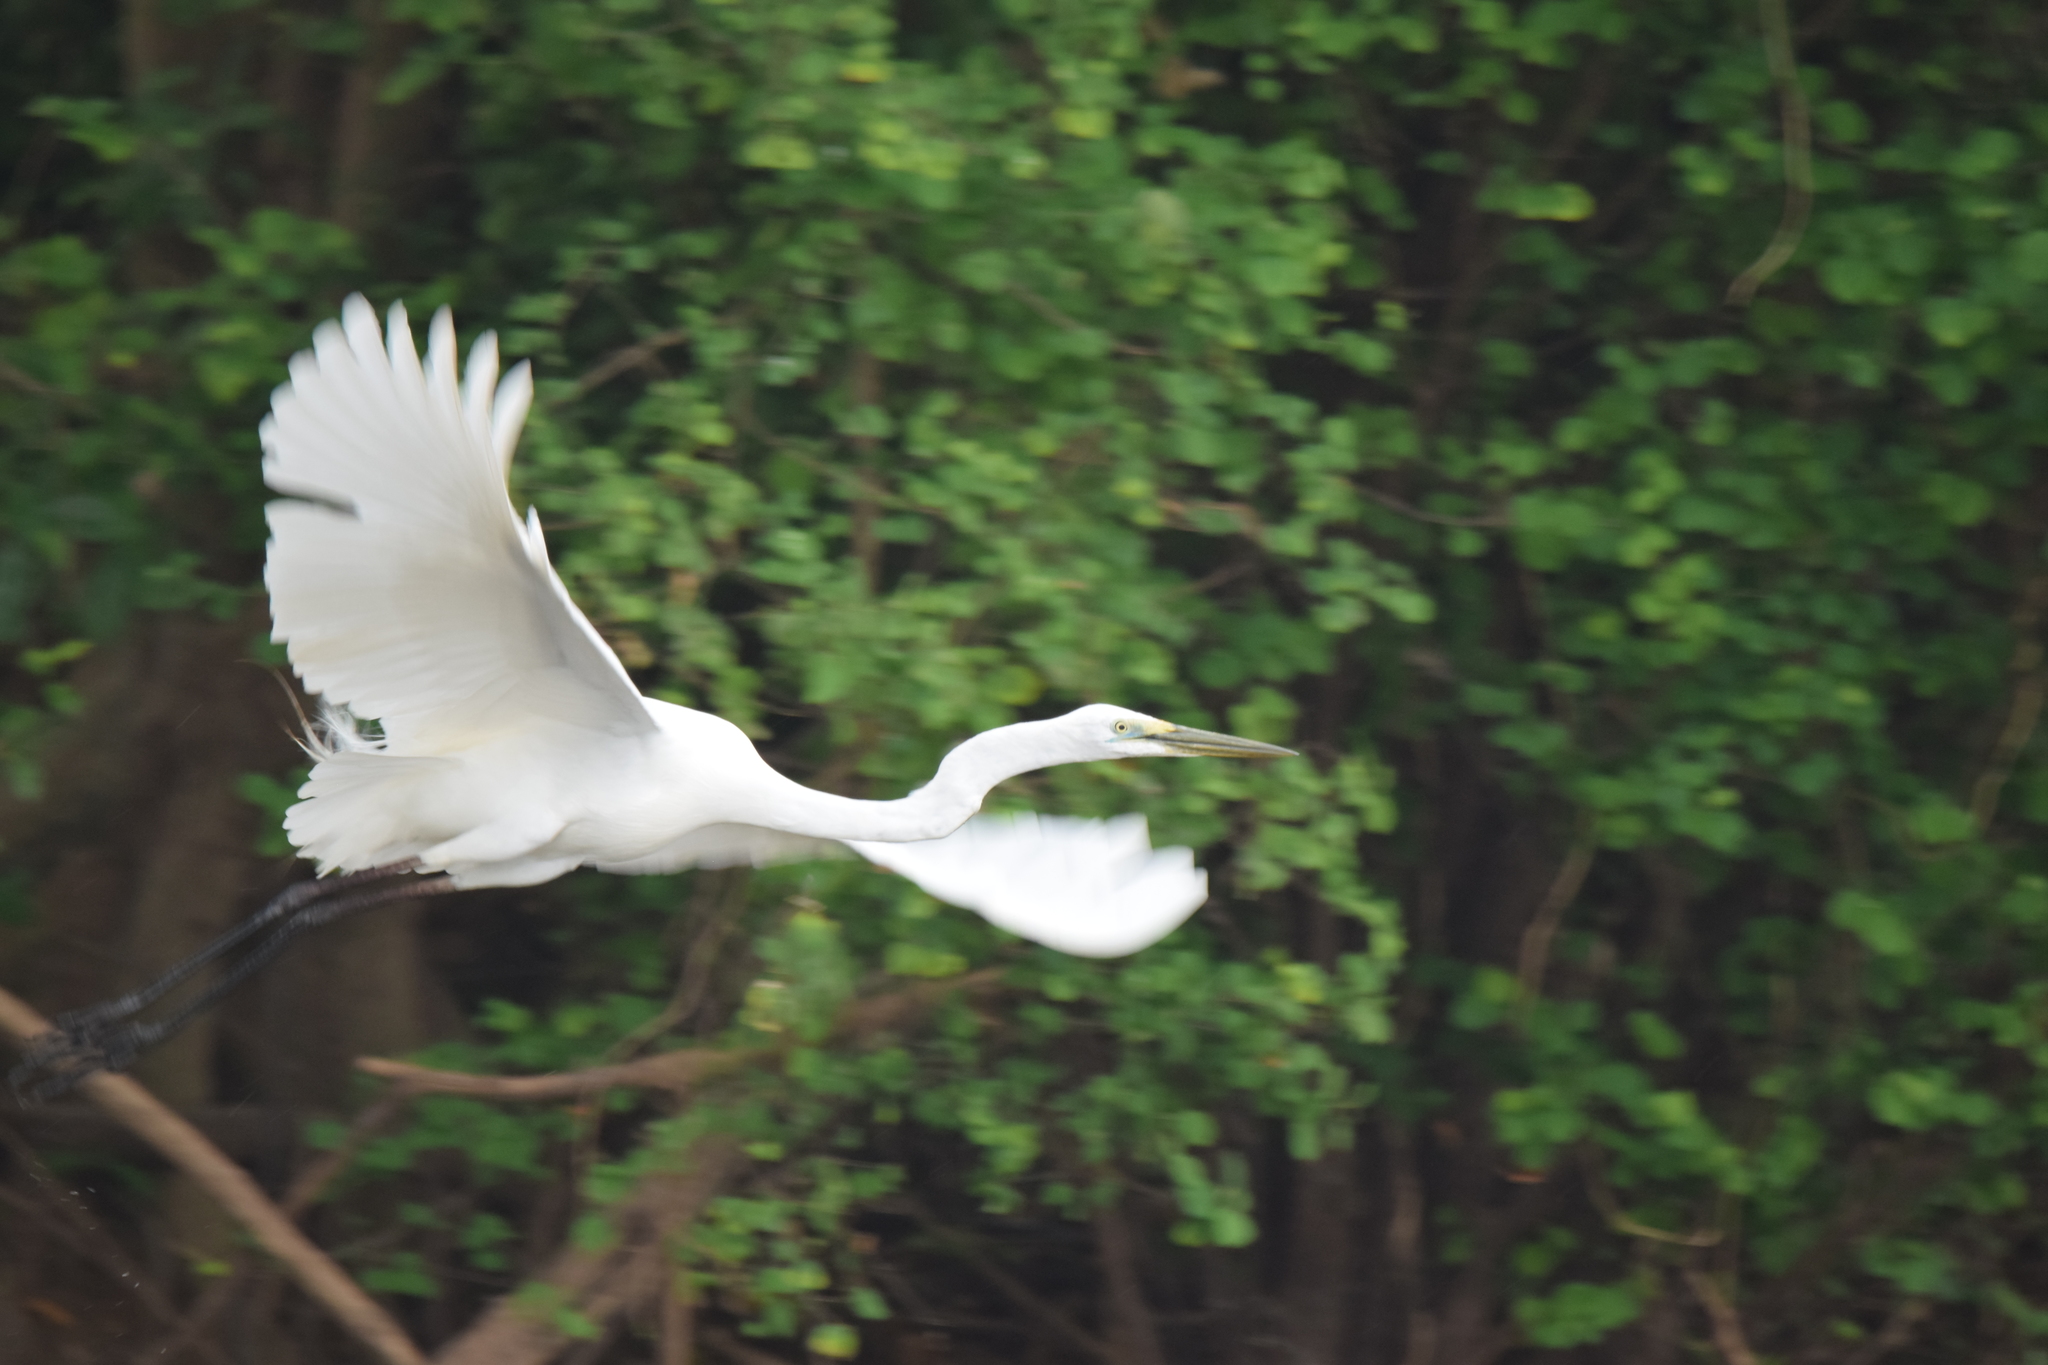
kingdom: Animalia
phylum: Chordata
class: Aves
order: Pelecaniformes
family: Ardeidae
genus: Ardea
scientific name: Ardea alba
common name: Great egret
